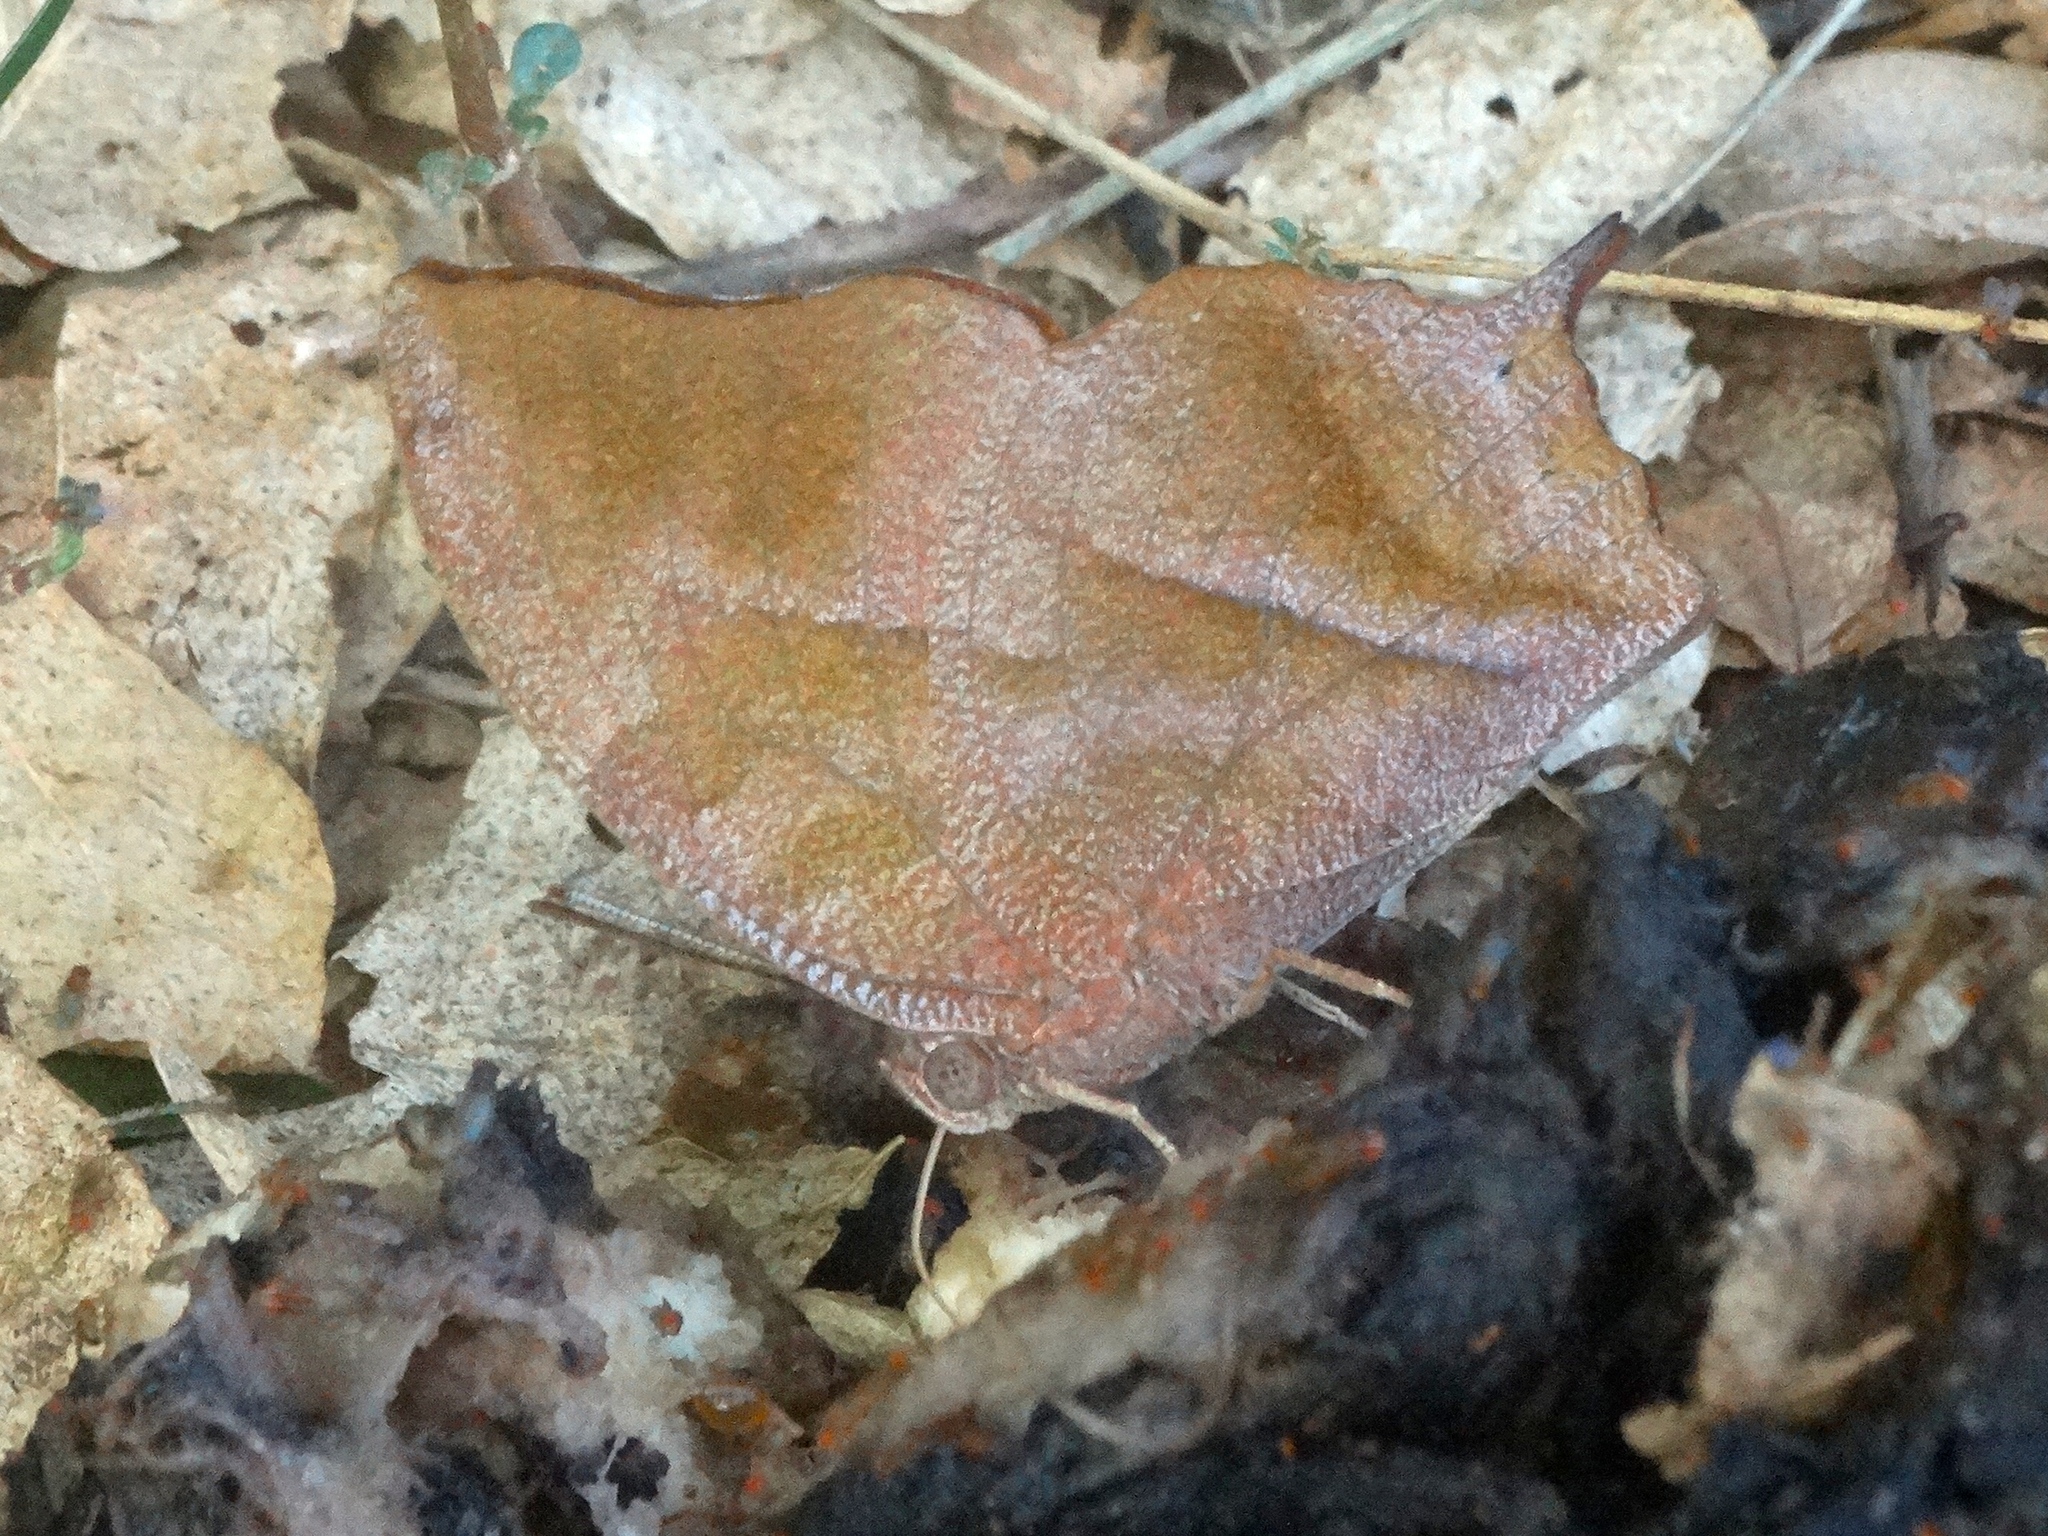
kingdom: Animalia
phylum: Arthropoda
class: Insecta
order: Lepidoptera
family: Nymphalidae
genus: Fountainea
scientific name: Fountainea
